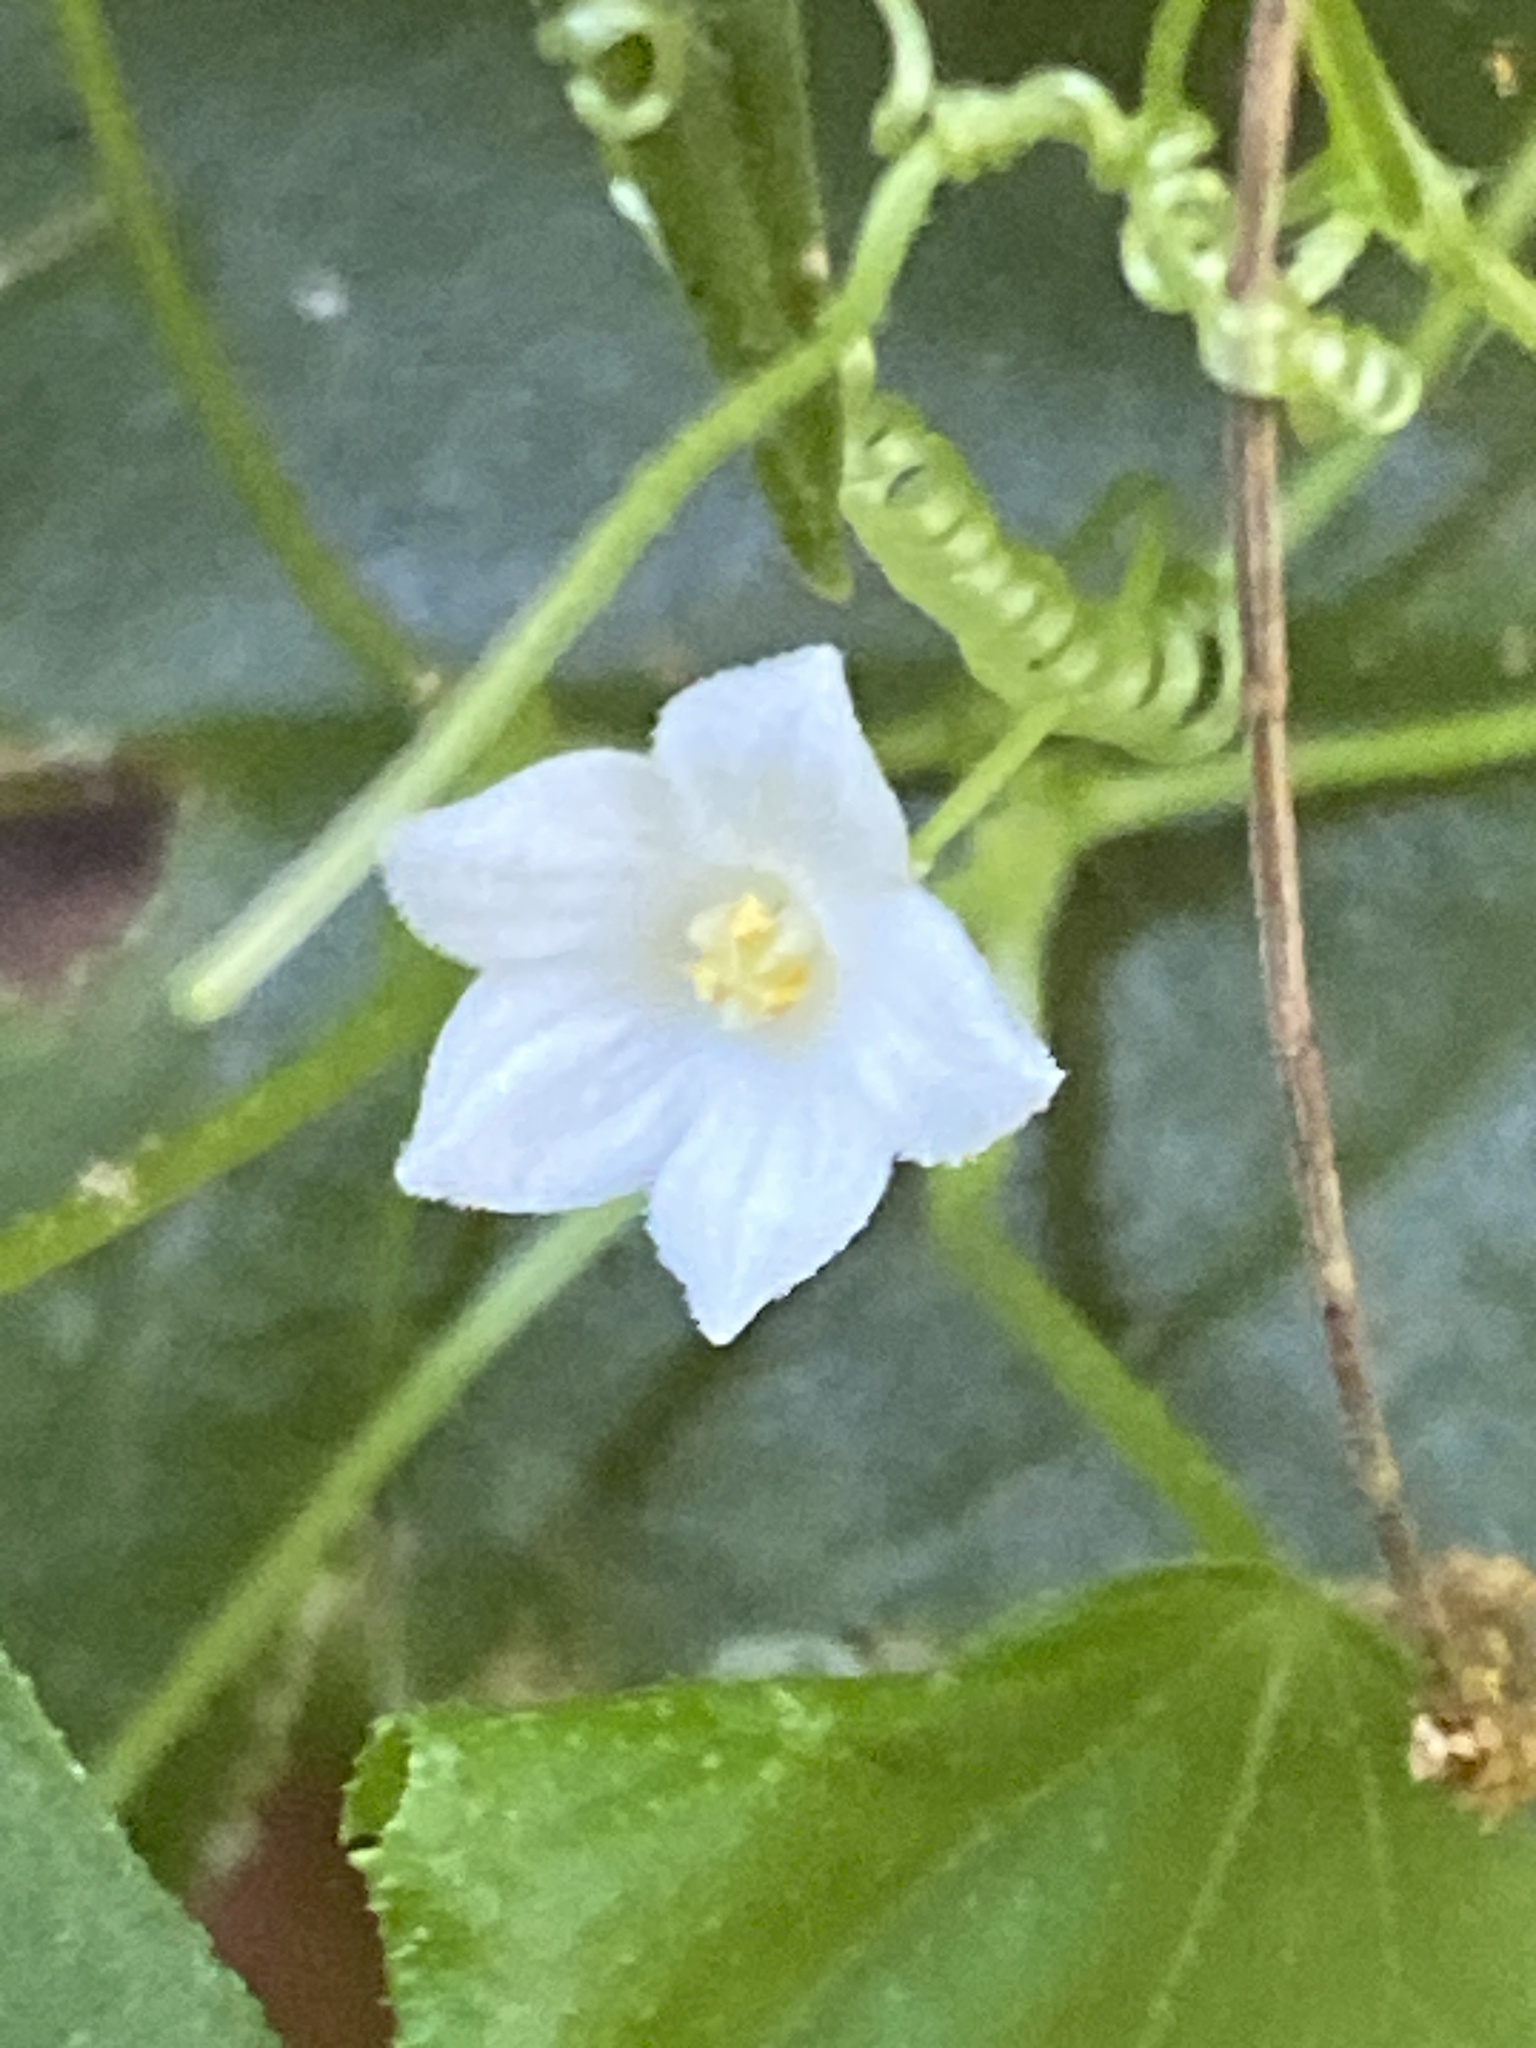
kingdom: Plantae
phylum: Tracheophyta
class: Magnoliopsida
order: Cucurbitales
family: Cucurbitaceae
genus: Zehneria
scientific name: Zehneria cunninghamii
